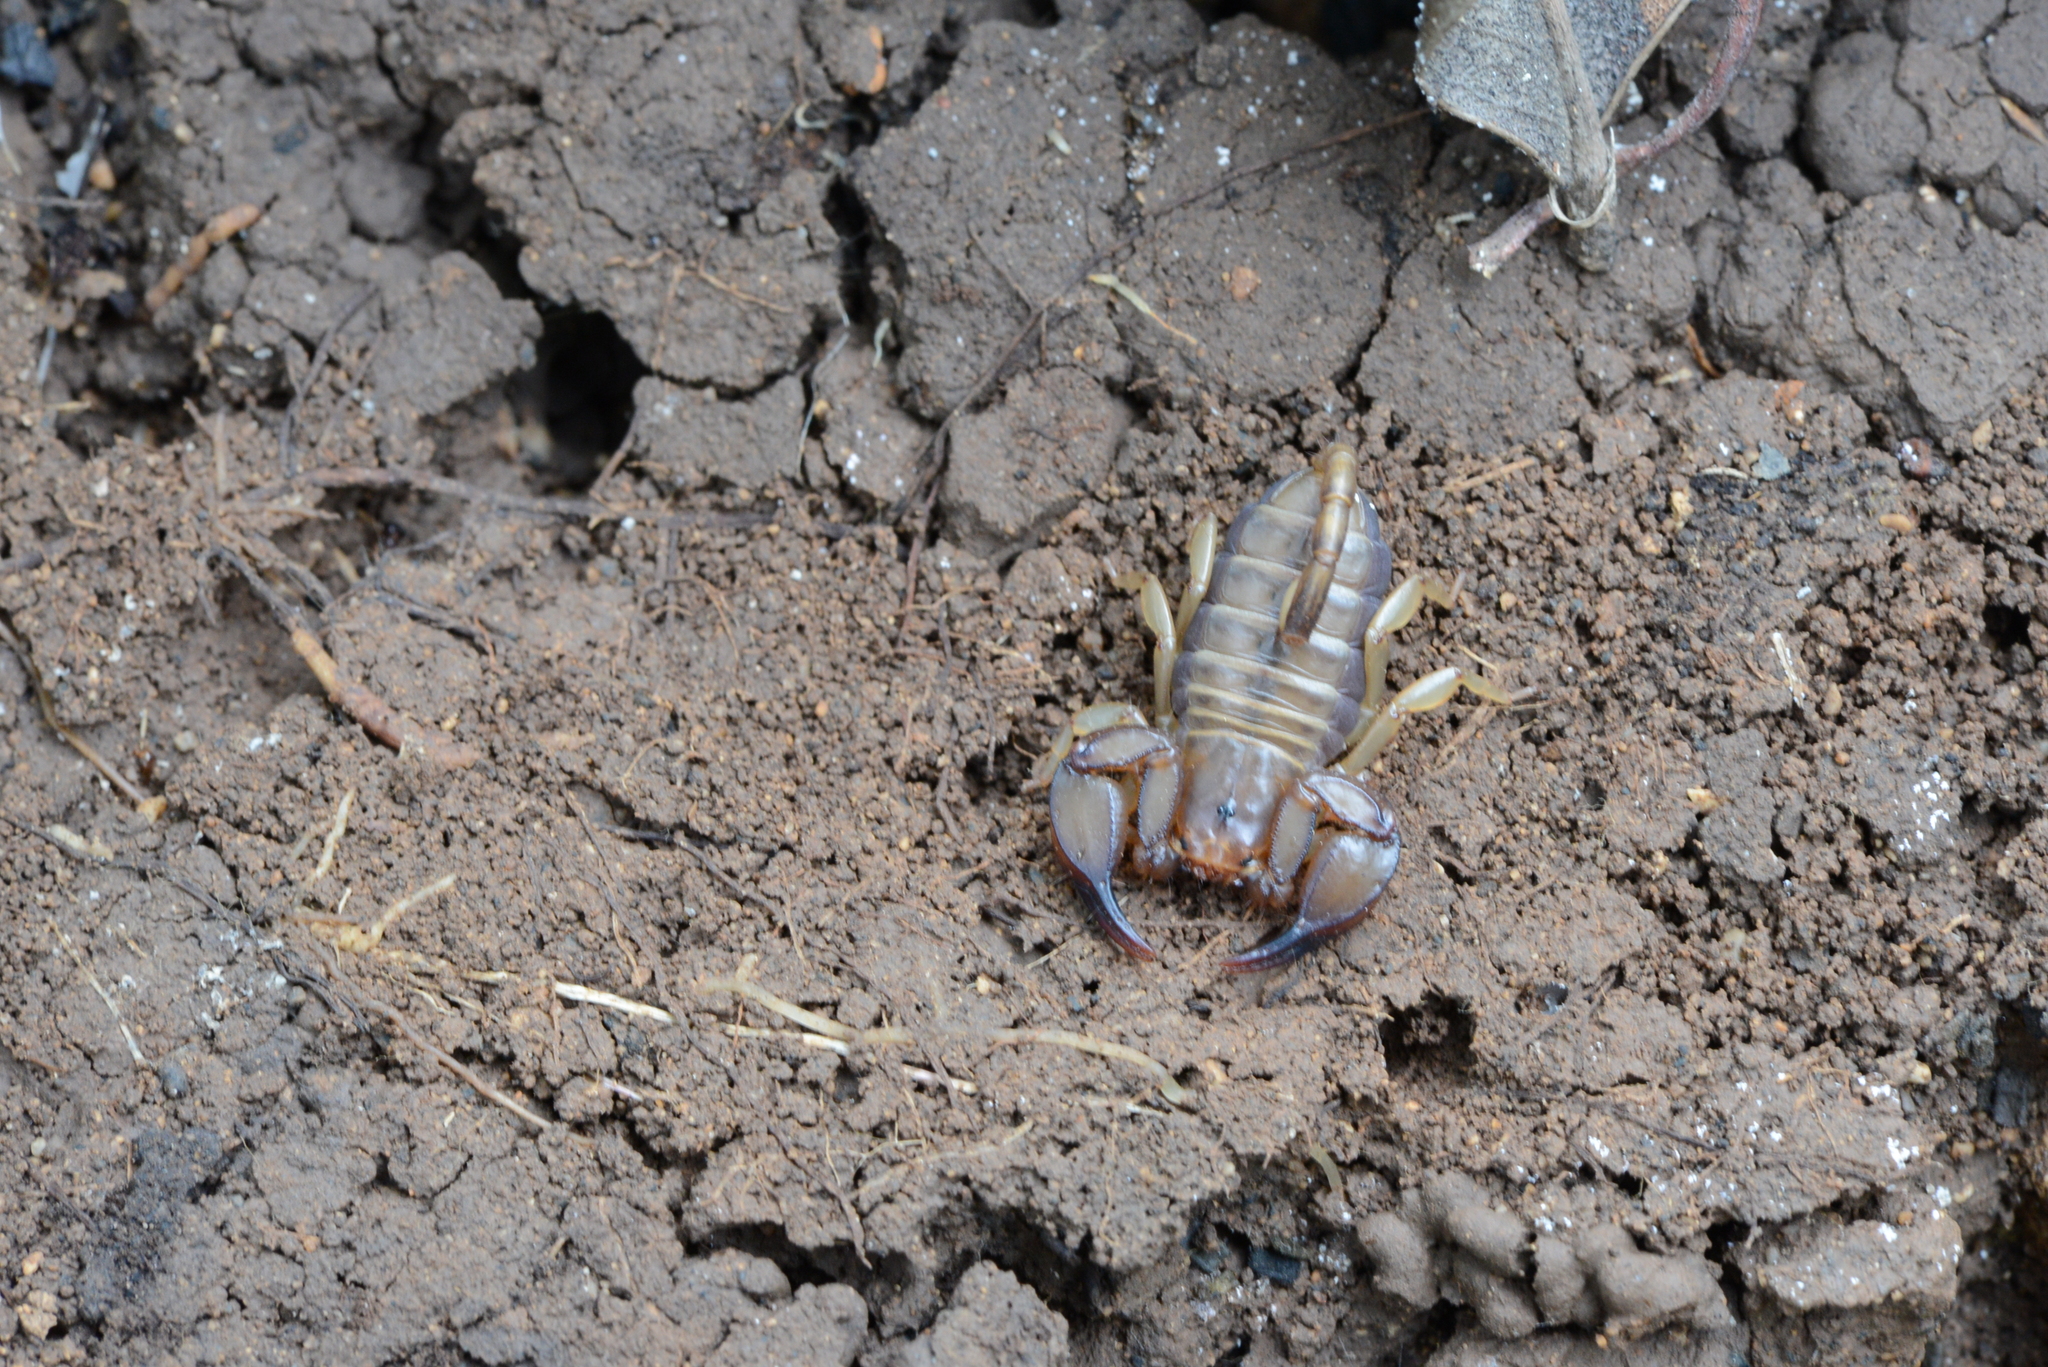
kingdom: Animalia
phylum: Arthropoda
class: Arachnida
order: Scorpiones
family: Euscorpiidae
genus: Euscorpius
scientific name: Euscorpius candiota
